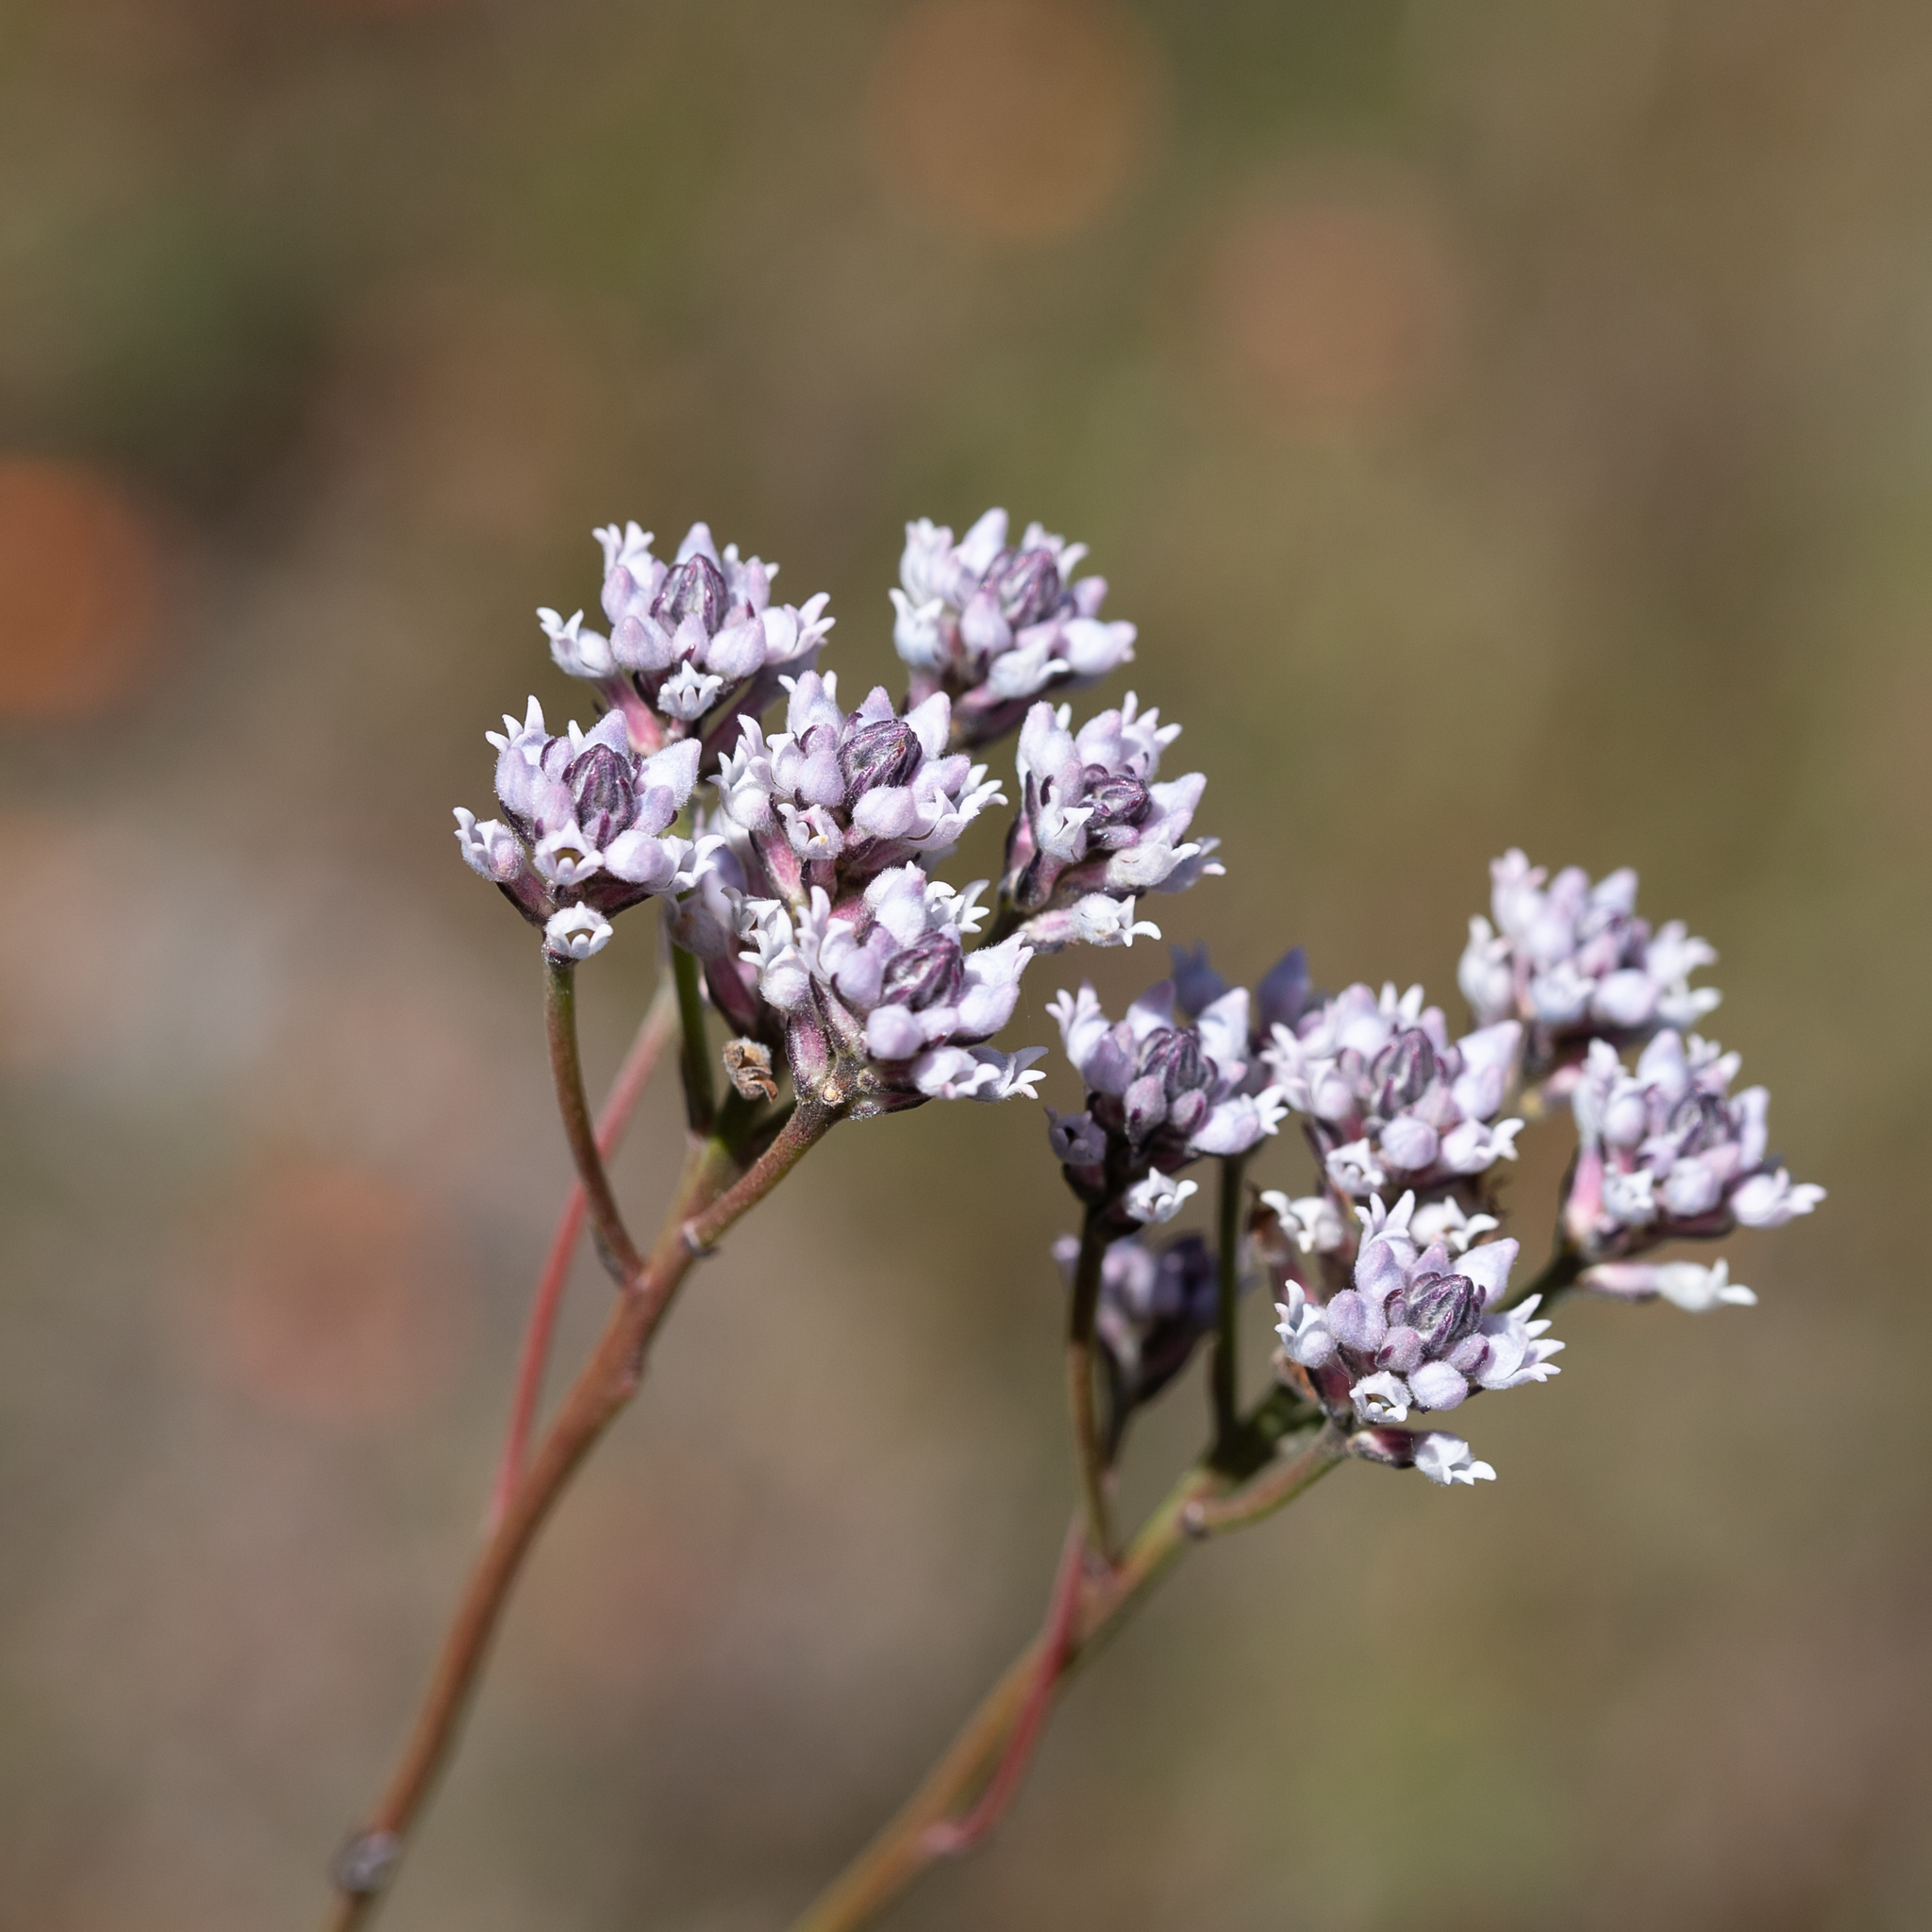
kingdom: Plantae
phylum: Tracheophyta
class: Magnoliopsida
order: Proteales
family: Proteaceae
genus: Conospermum
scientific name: Conospermum patens
